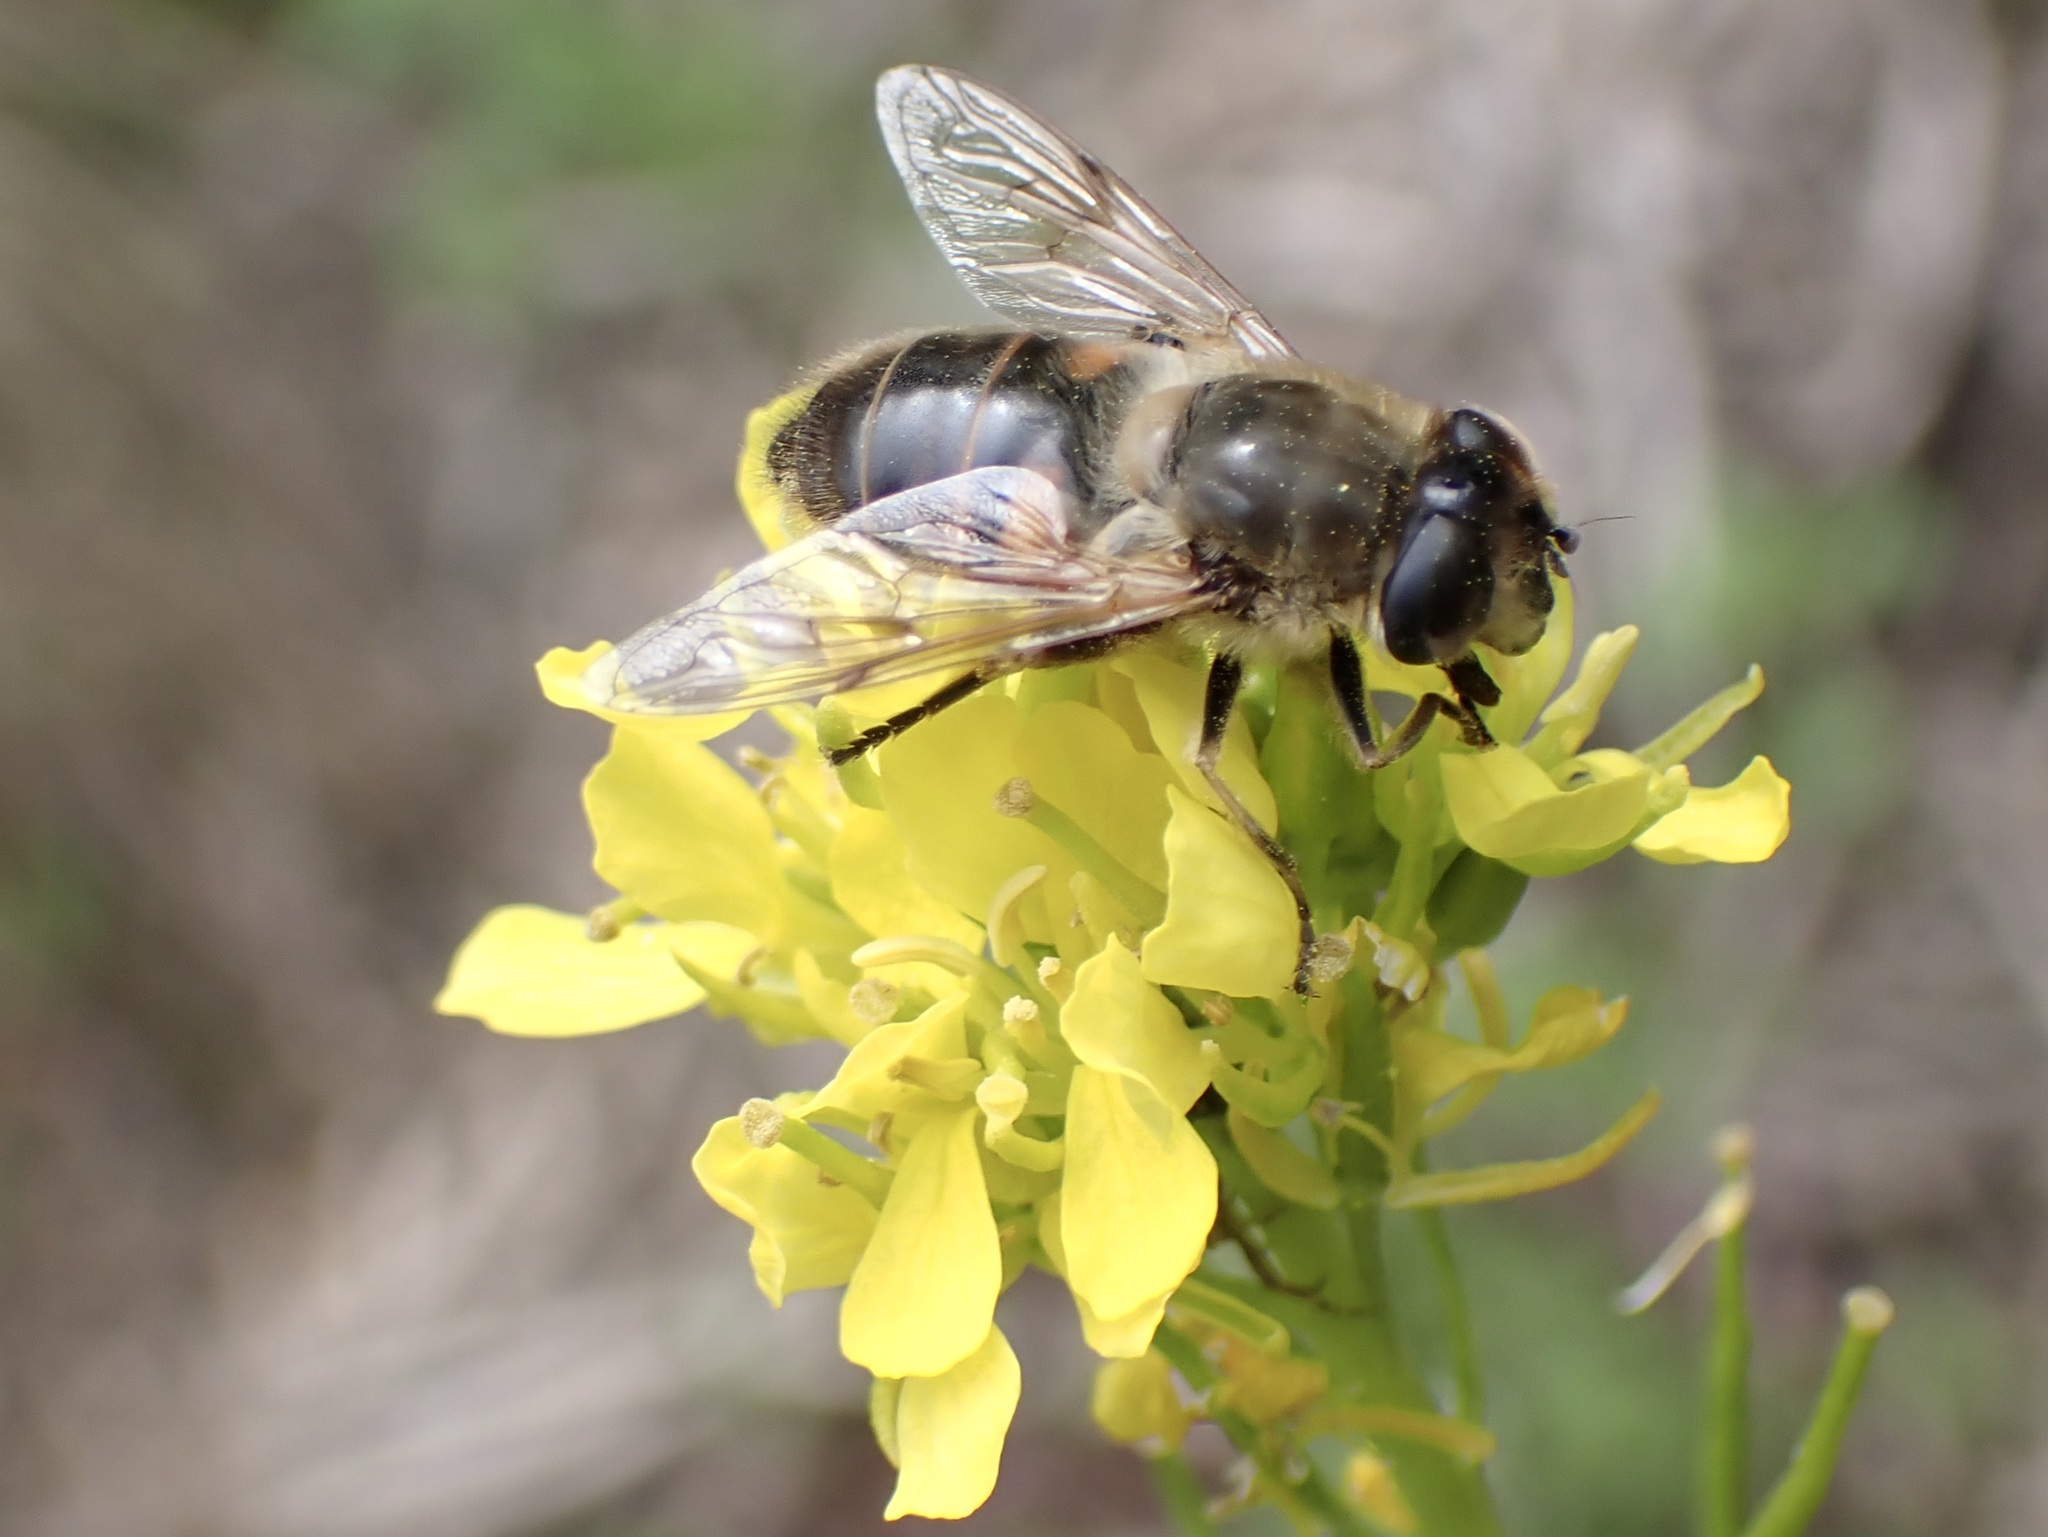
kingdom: Animalia
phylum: Arthropoda
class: Insecta
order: Diptera
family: Syrphidae
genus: Eristalis
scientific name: Eristalis tenax
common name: Drone fly
